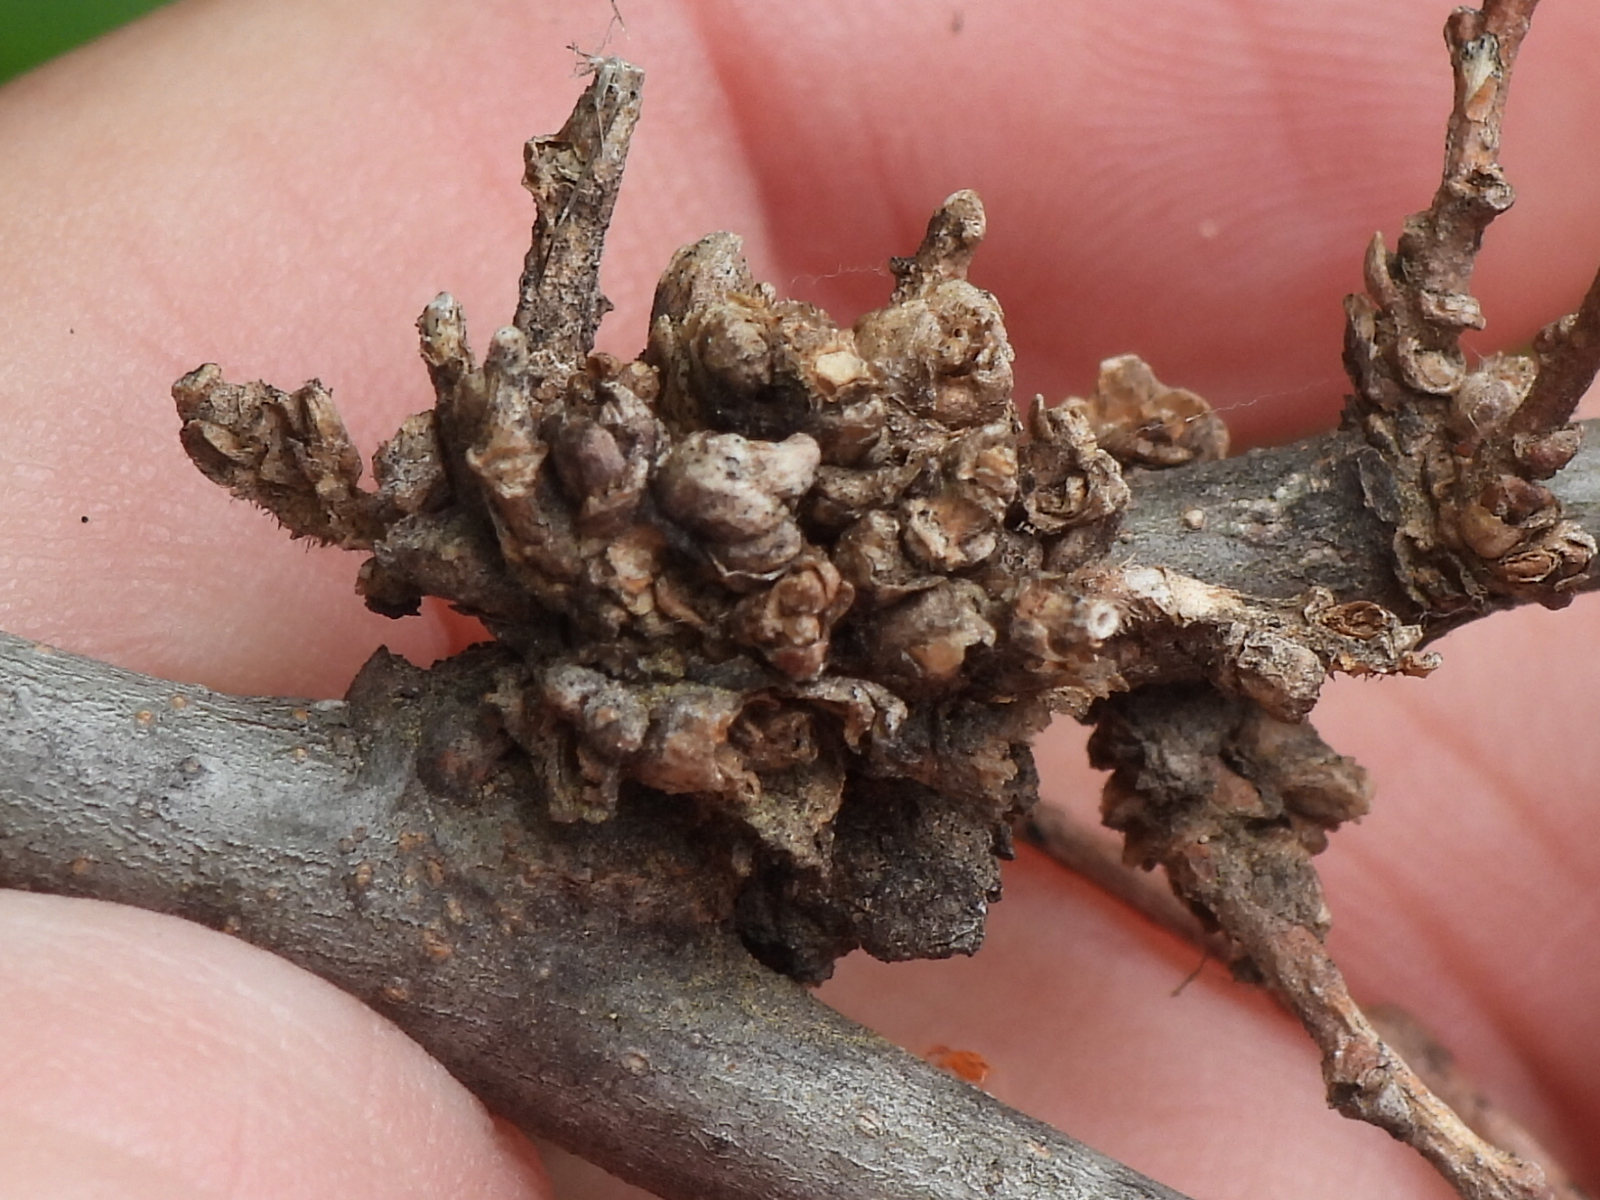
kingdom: Animalia
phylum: Arthropoda
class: Arachnida
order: Trombidiformes
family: Eriophyidae
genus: Aceria
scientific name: Aceria
